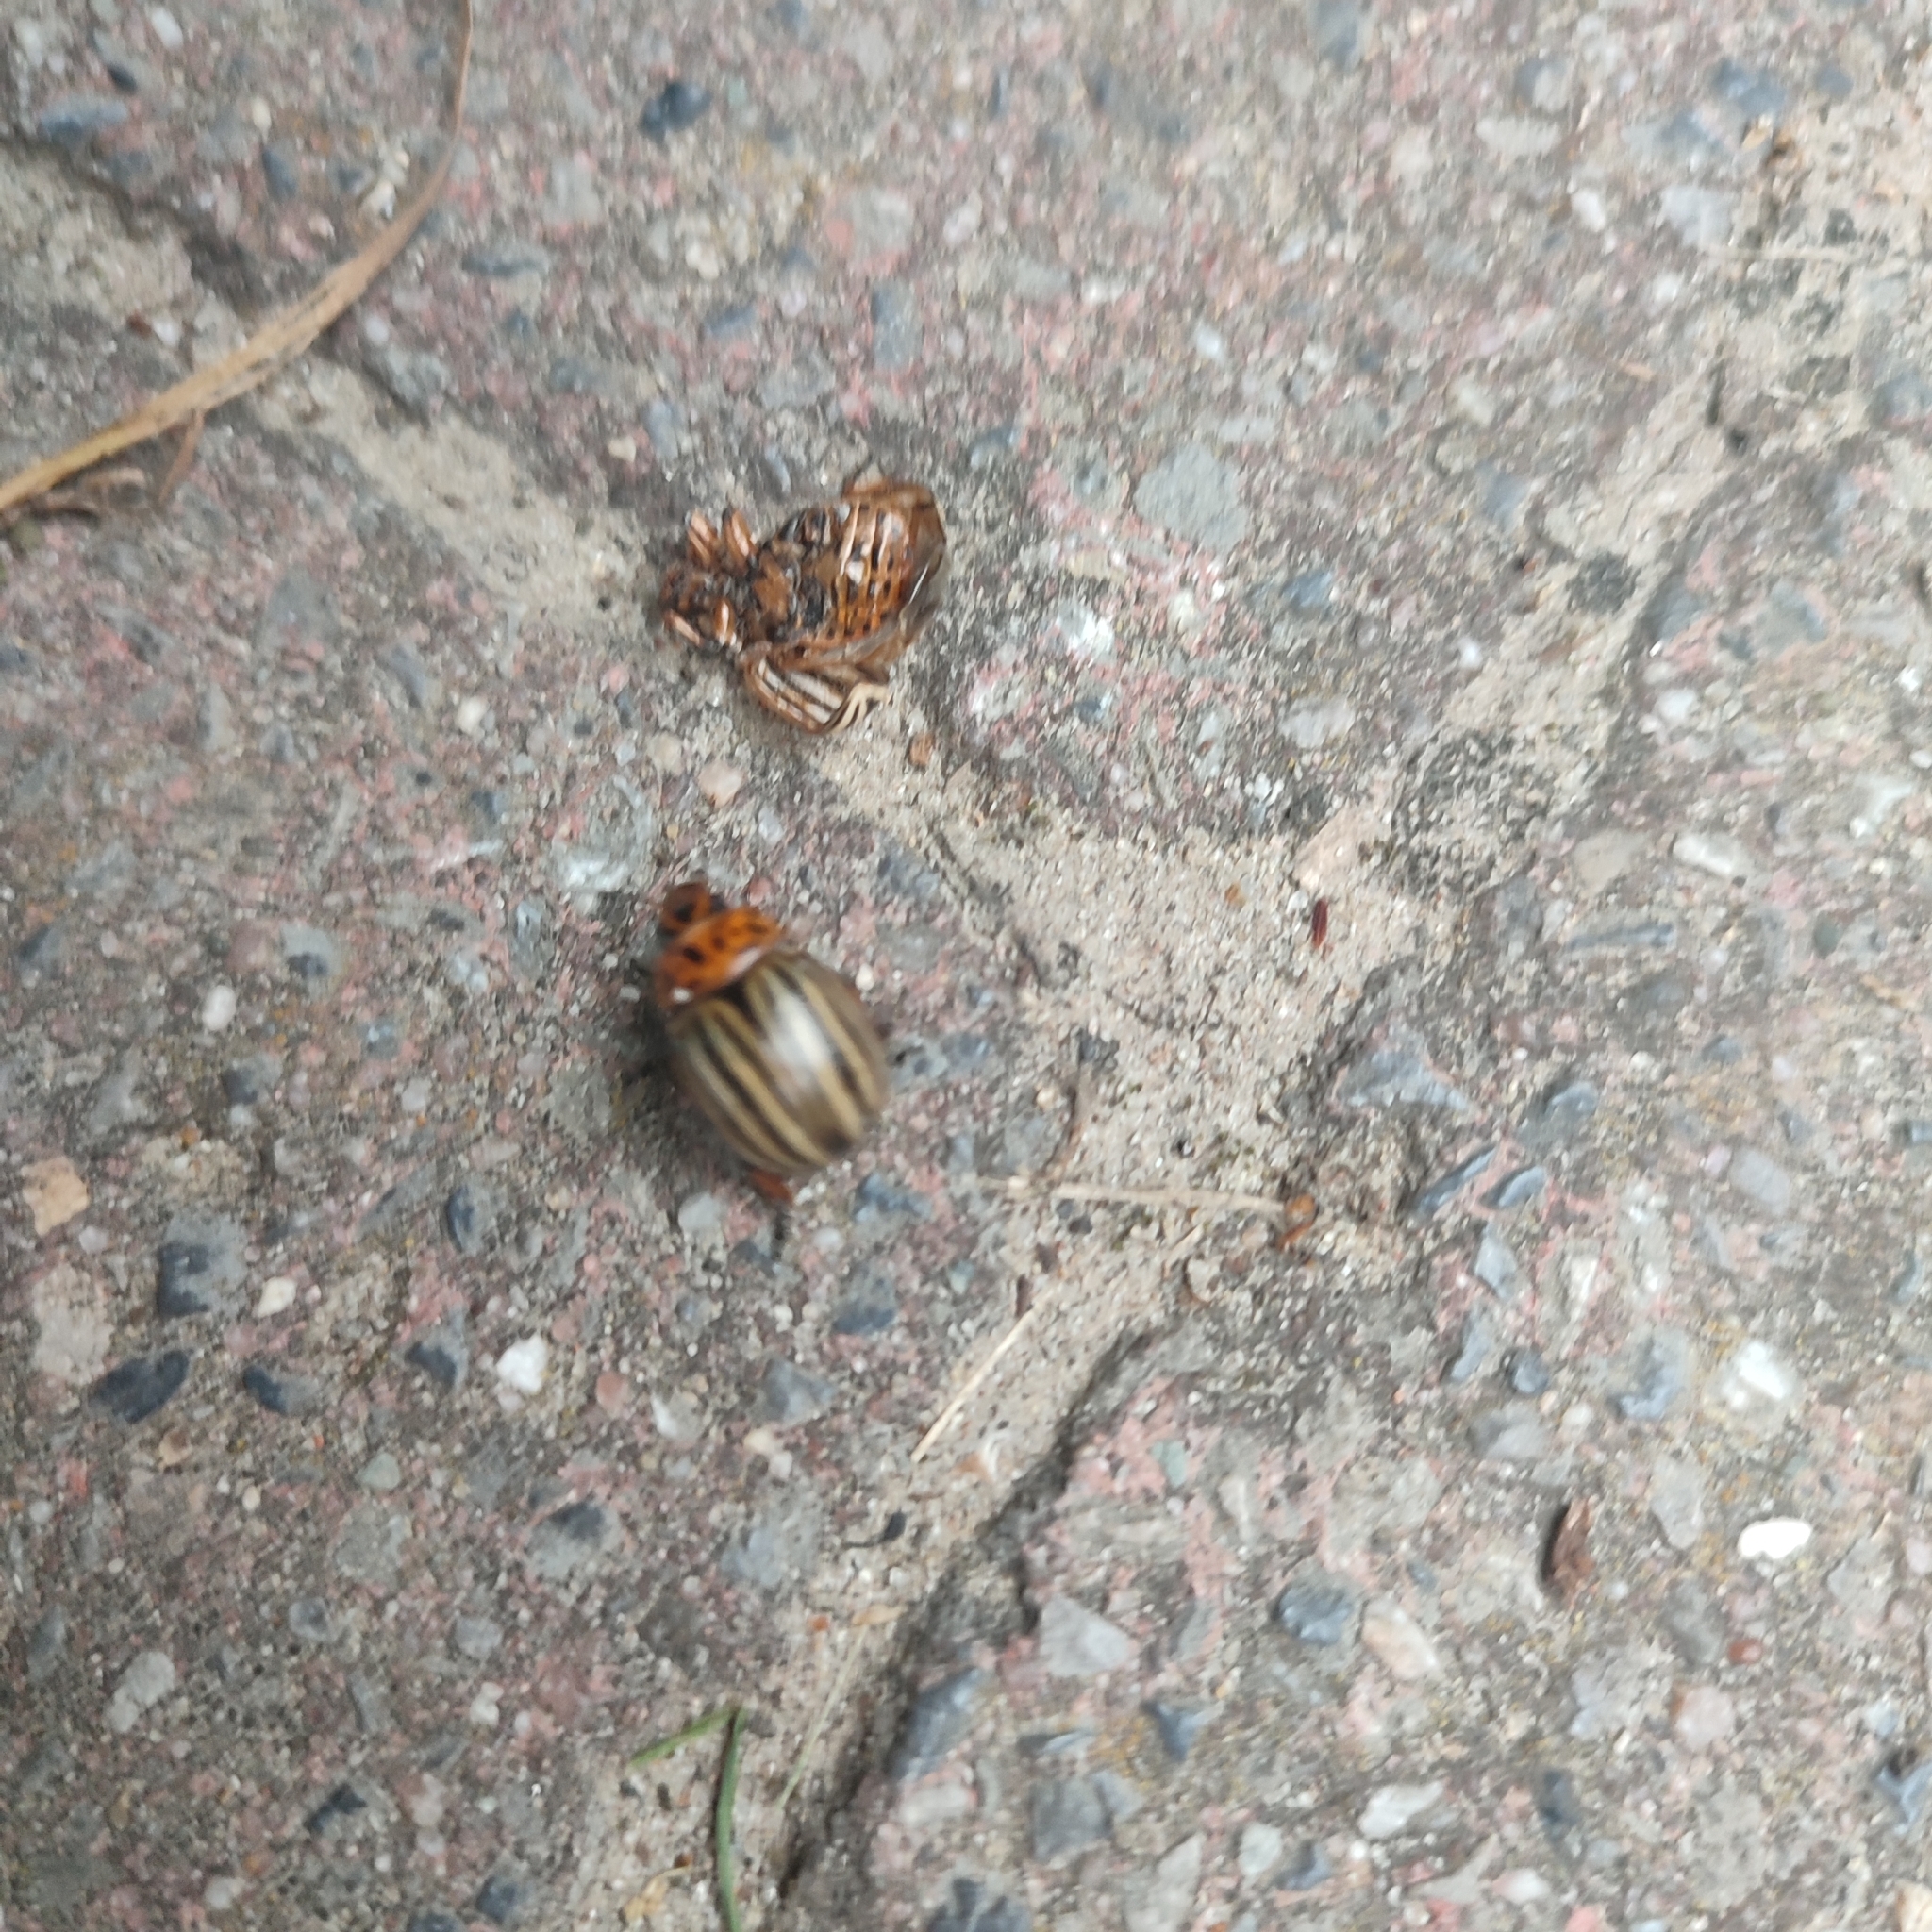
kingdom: Animalia
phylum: Arthropoda
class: Insecta
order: Coleoptera
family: Chrysomelidae
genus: Leptinotarsa
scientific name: Leptinotarsa decemlineata
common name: Colorado potato beetle
